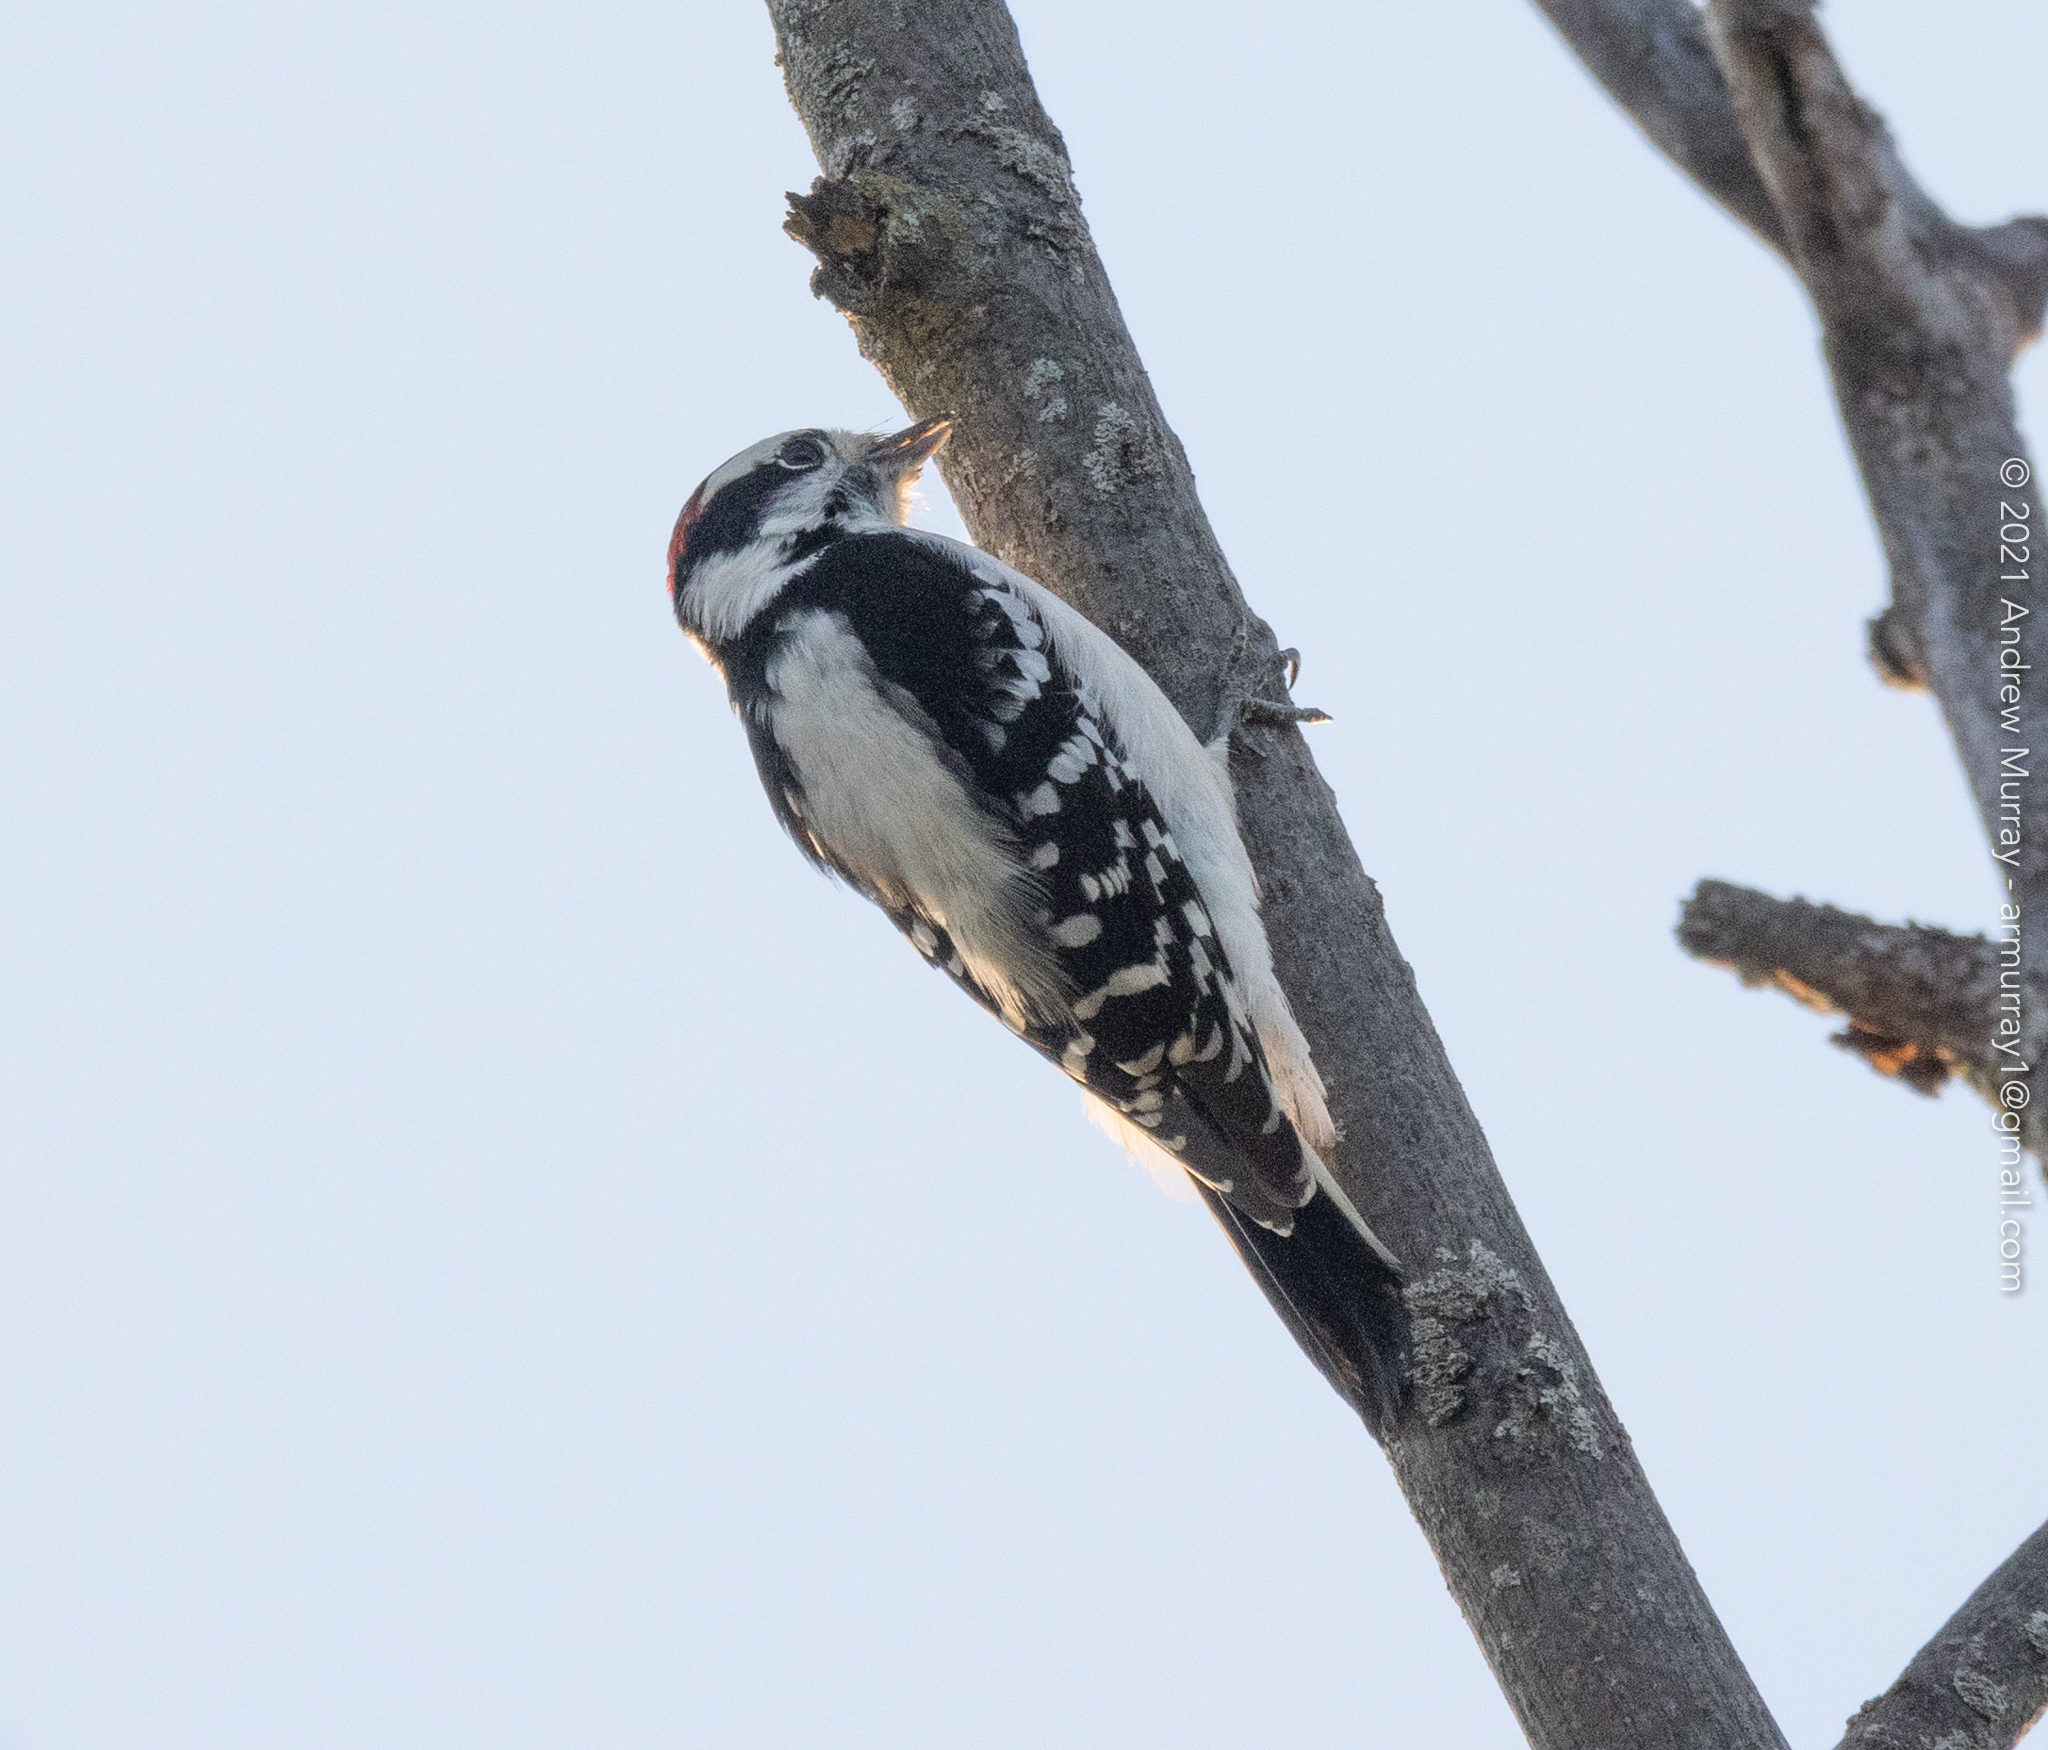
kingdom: Animalia
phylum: Chordata
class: Aves
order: Piciformes
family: Picidae
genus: Dryobates
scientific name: Dryobates pubescens
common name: Downy woodpecker
